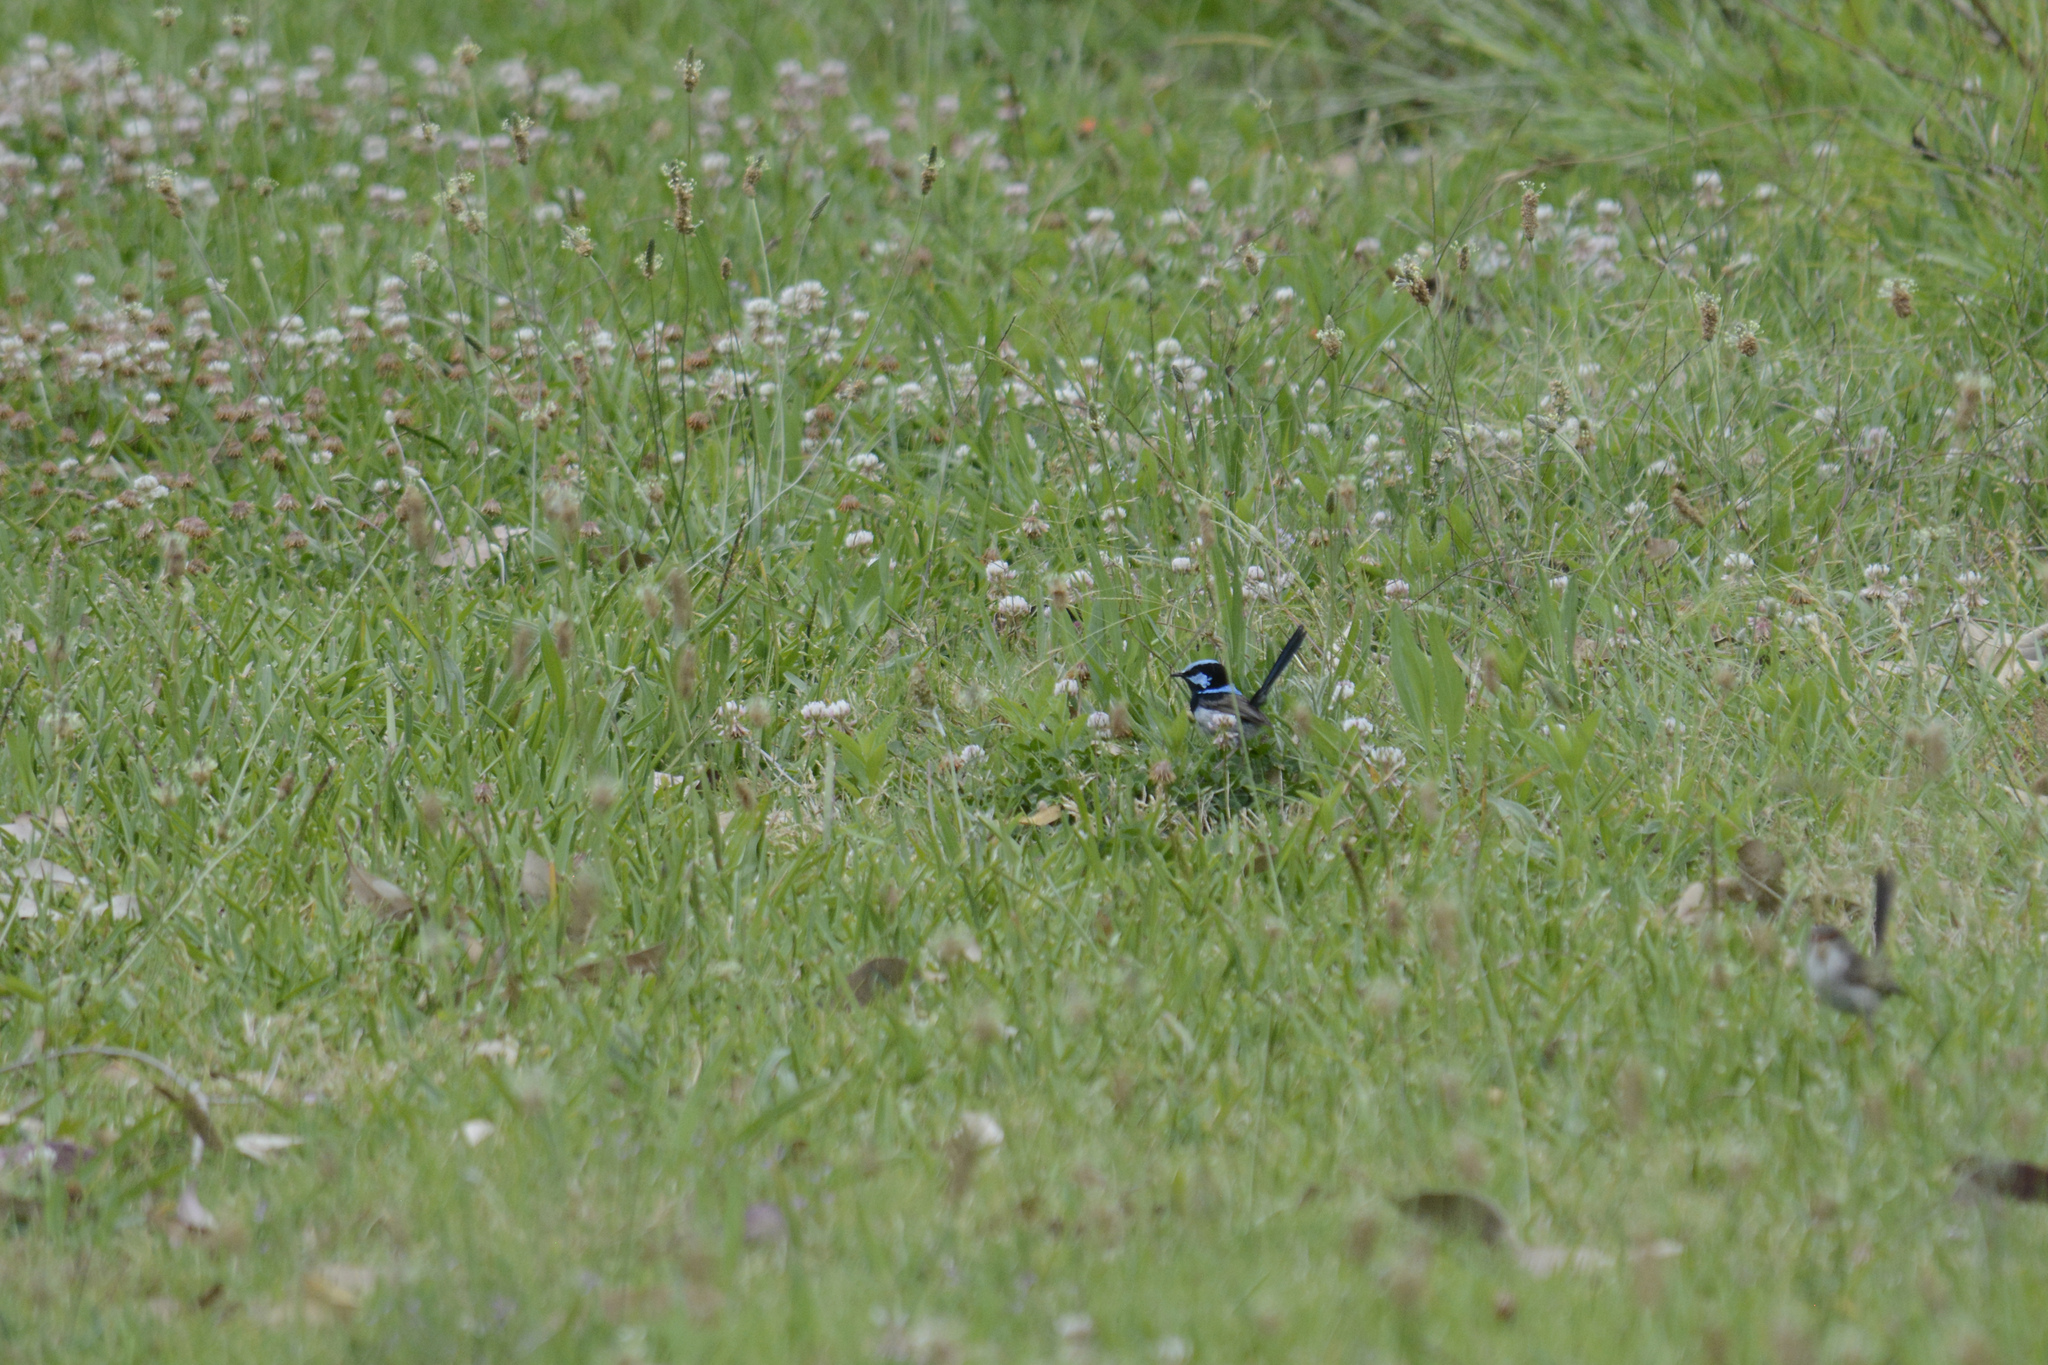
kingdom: Animalia
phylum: Chordata
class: Aves
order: Passeriformes
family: Maluridae
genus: Malurus
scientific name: Malurus cyaneus
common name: Superb fairywren
